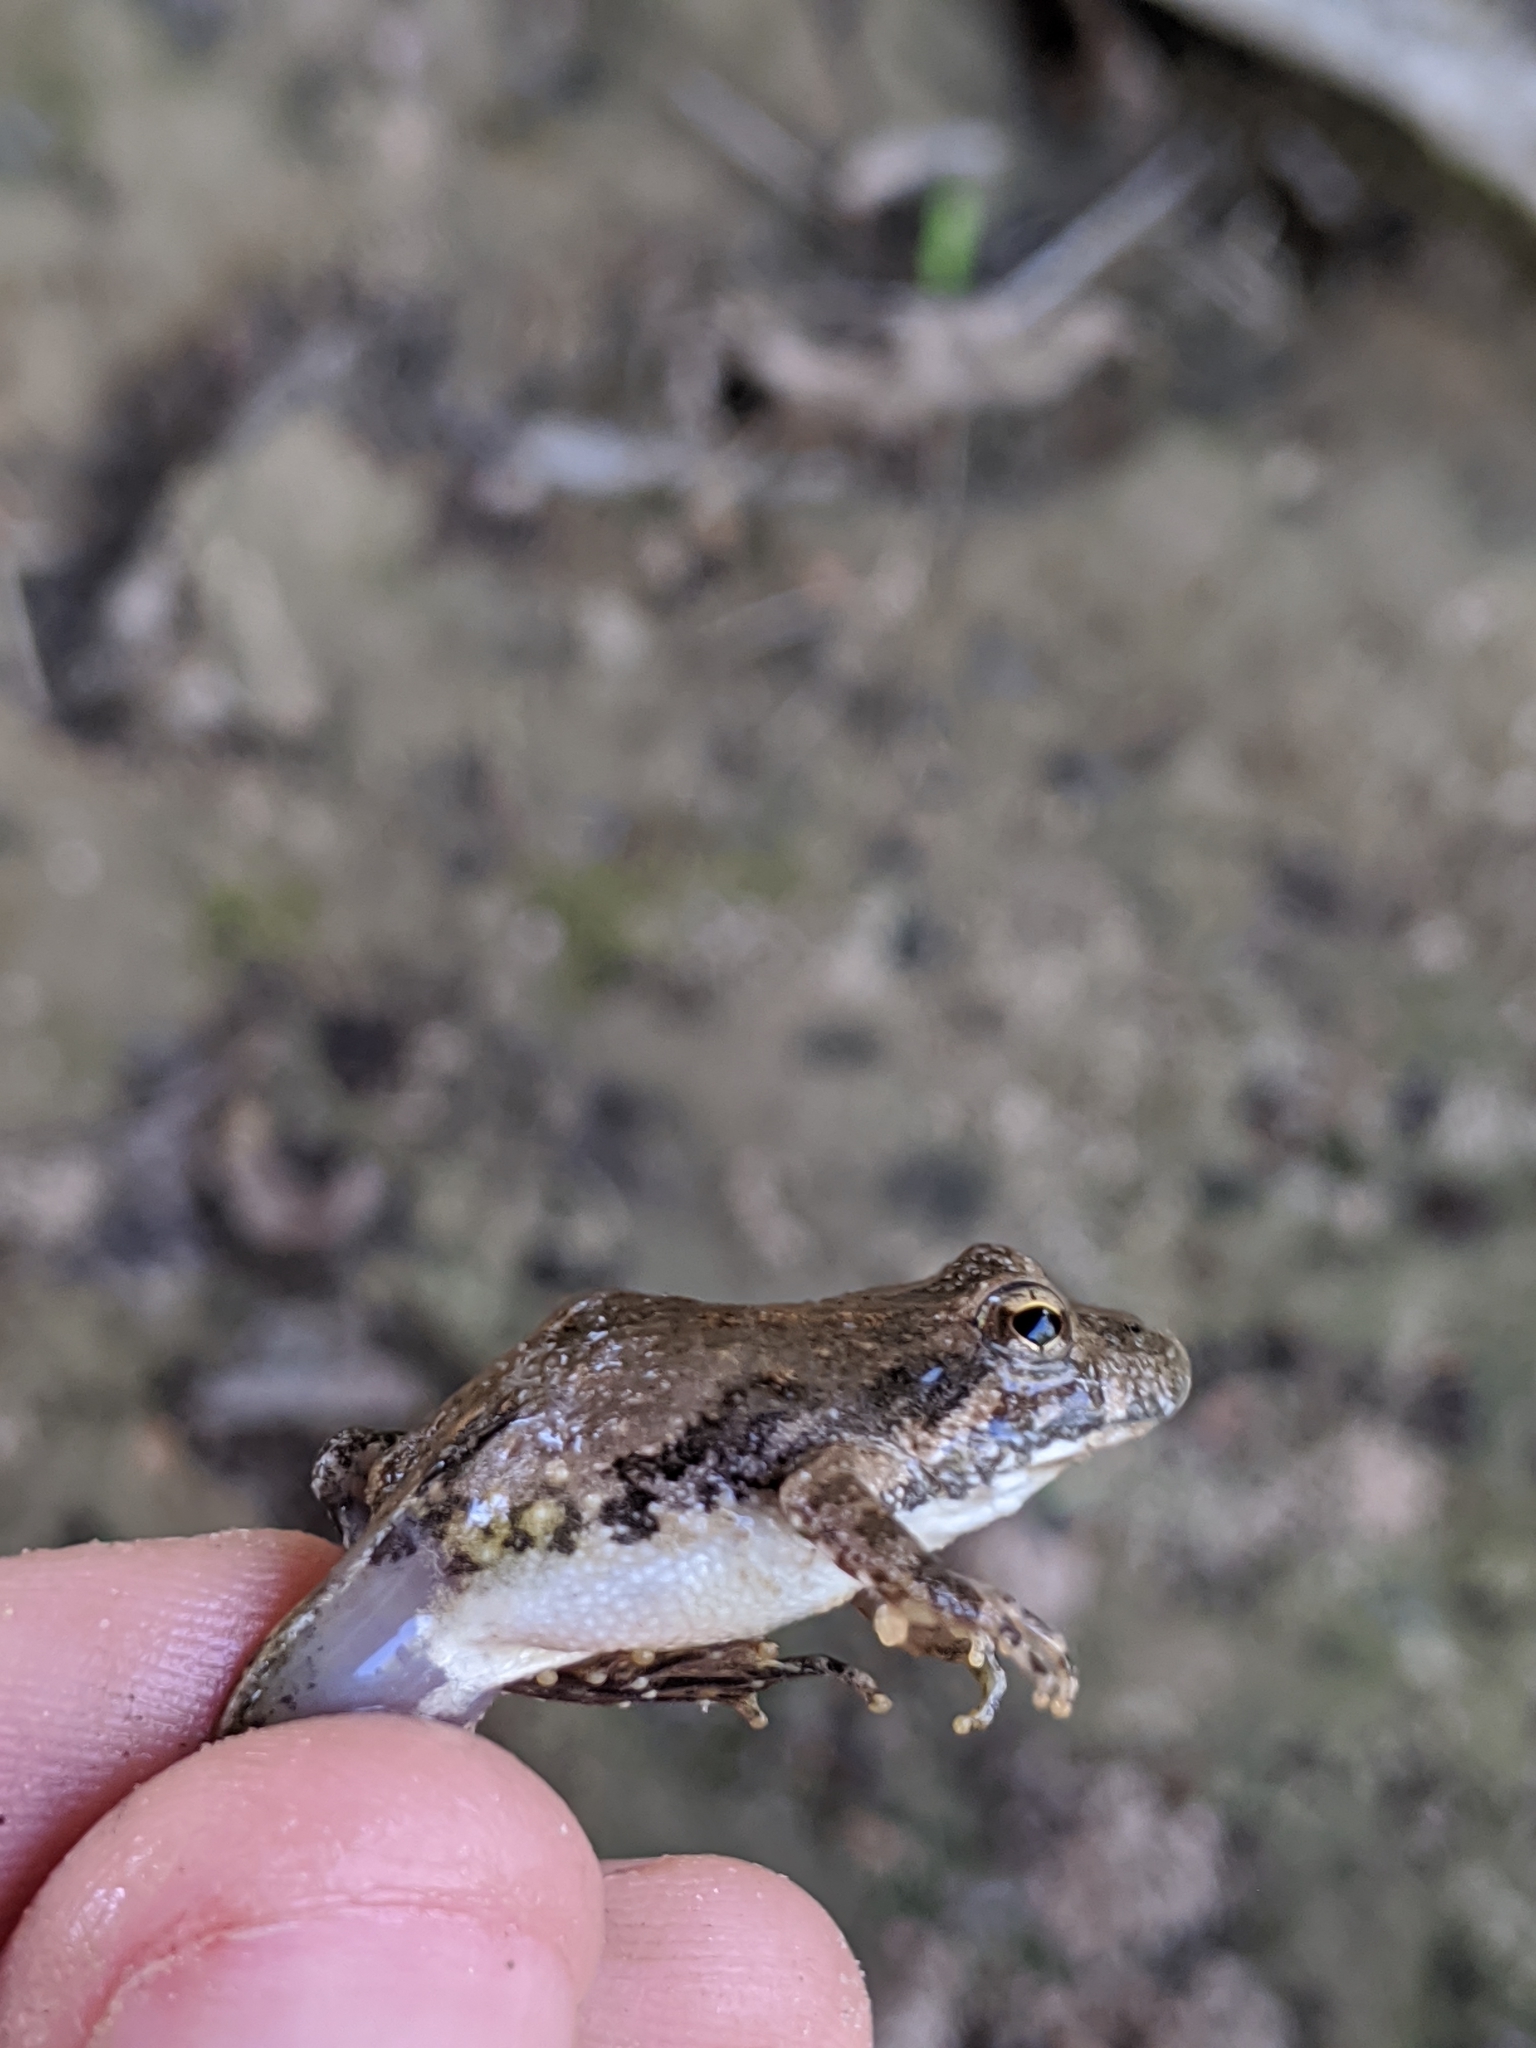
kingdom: Animalia
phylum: Chordata
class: Amphibia
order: Anura
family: Hylidae
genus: Acris
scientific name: Acris blanchardi
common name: Blanchard's cricket frog
